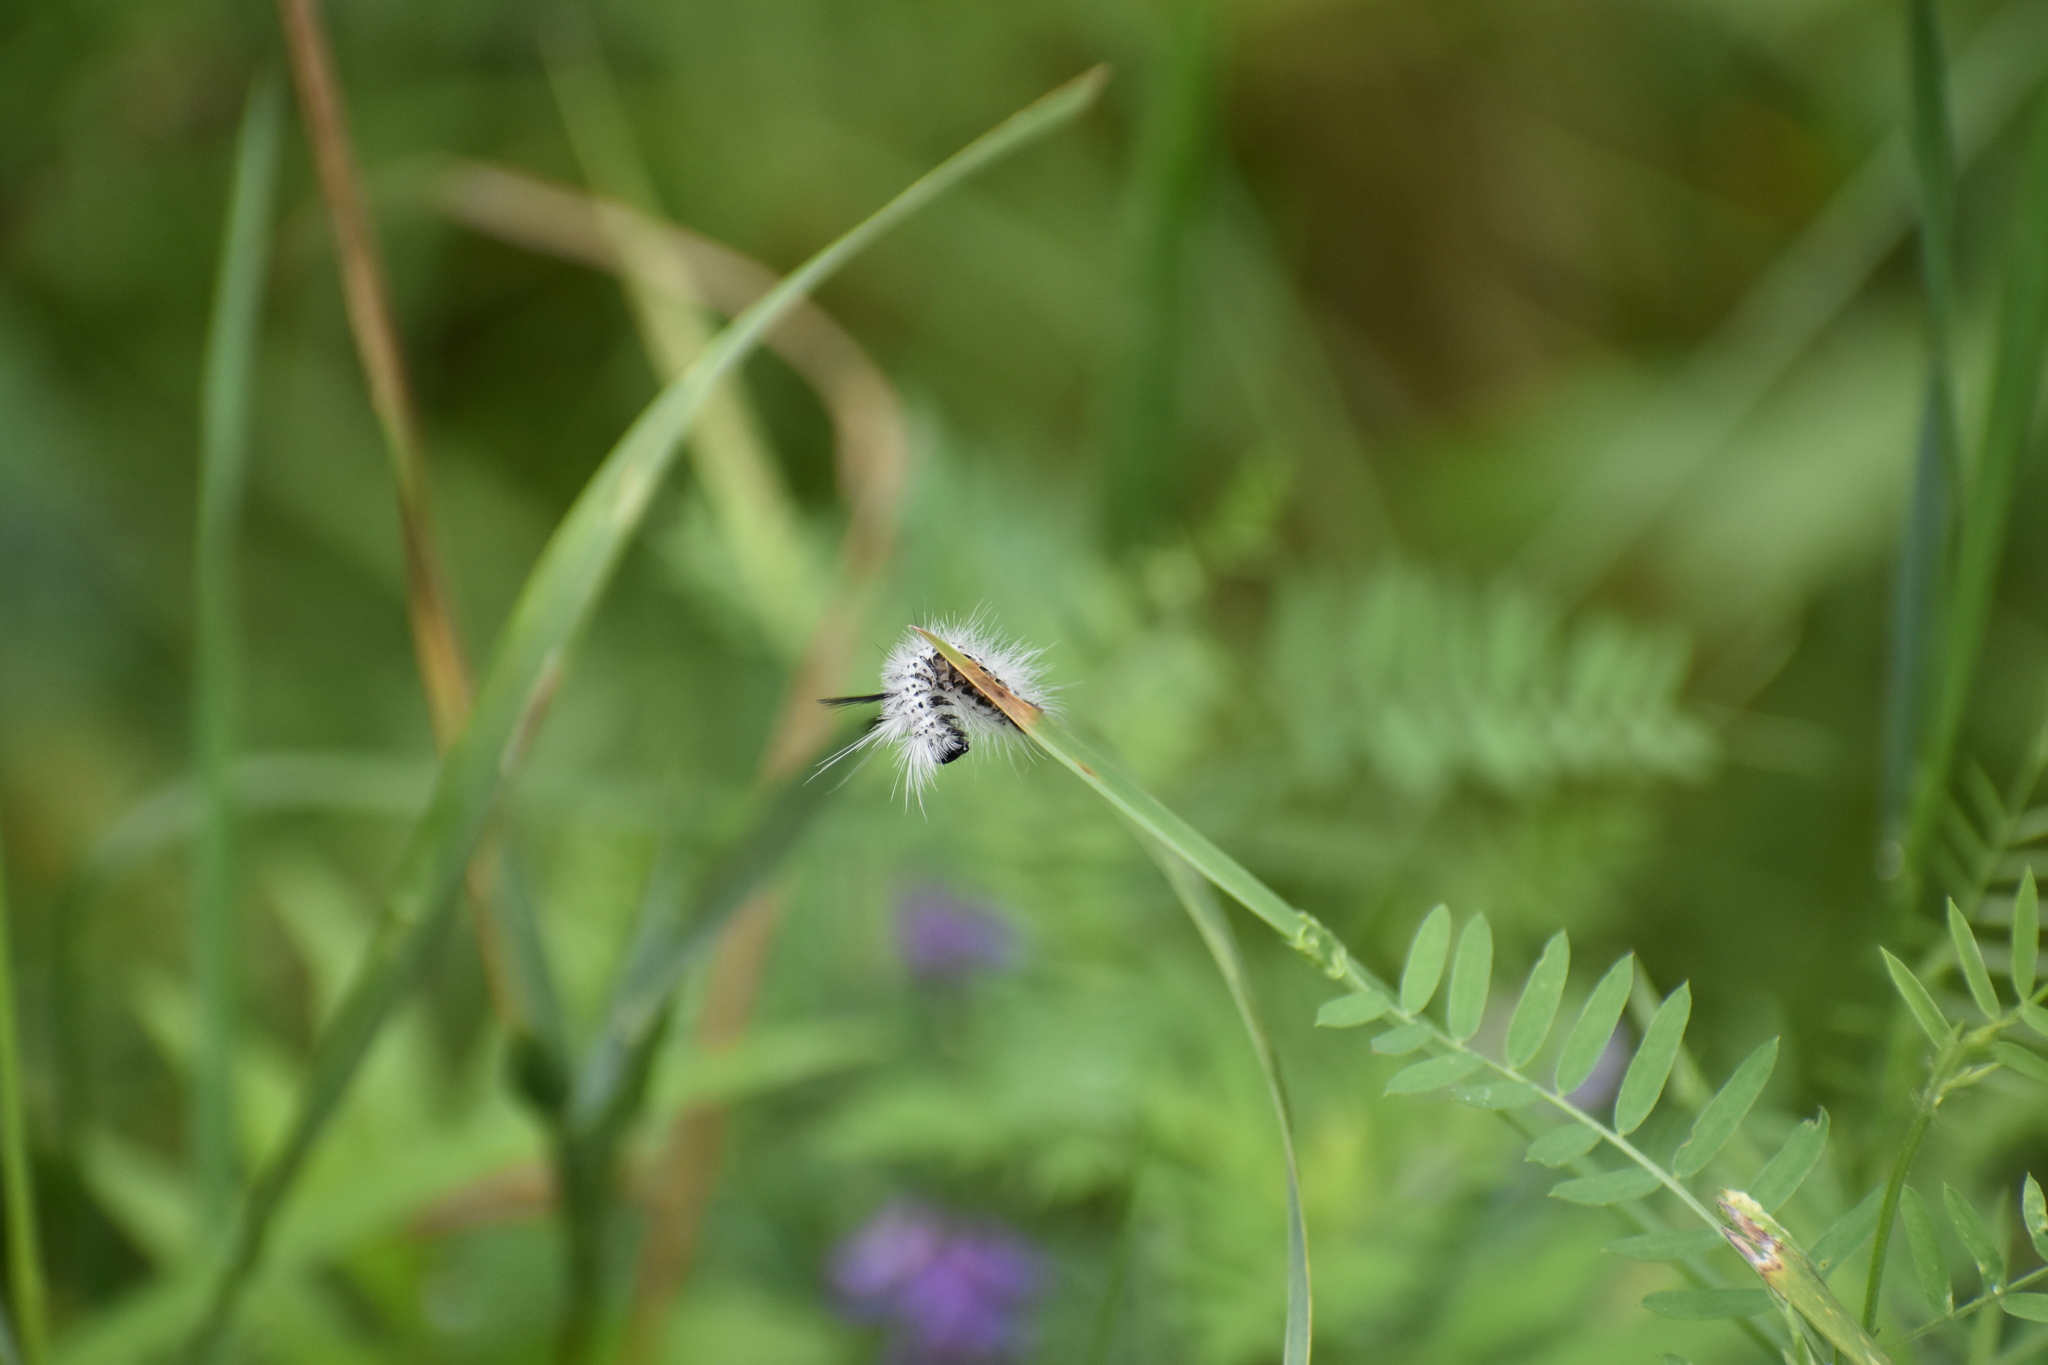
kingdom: Animalia
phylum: Arthropoda
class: Insecta
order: Lepidoptera
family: Erebidae
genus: Lophocampa
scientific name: Lophocampa caryae
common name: Hickory tussock moth
